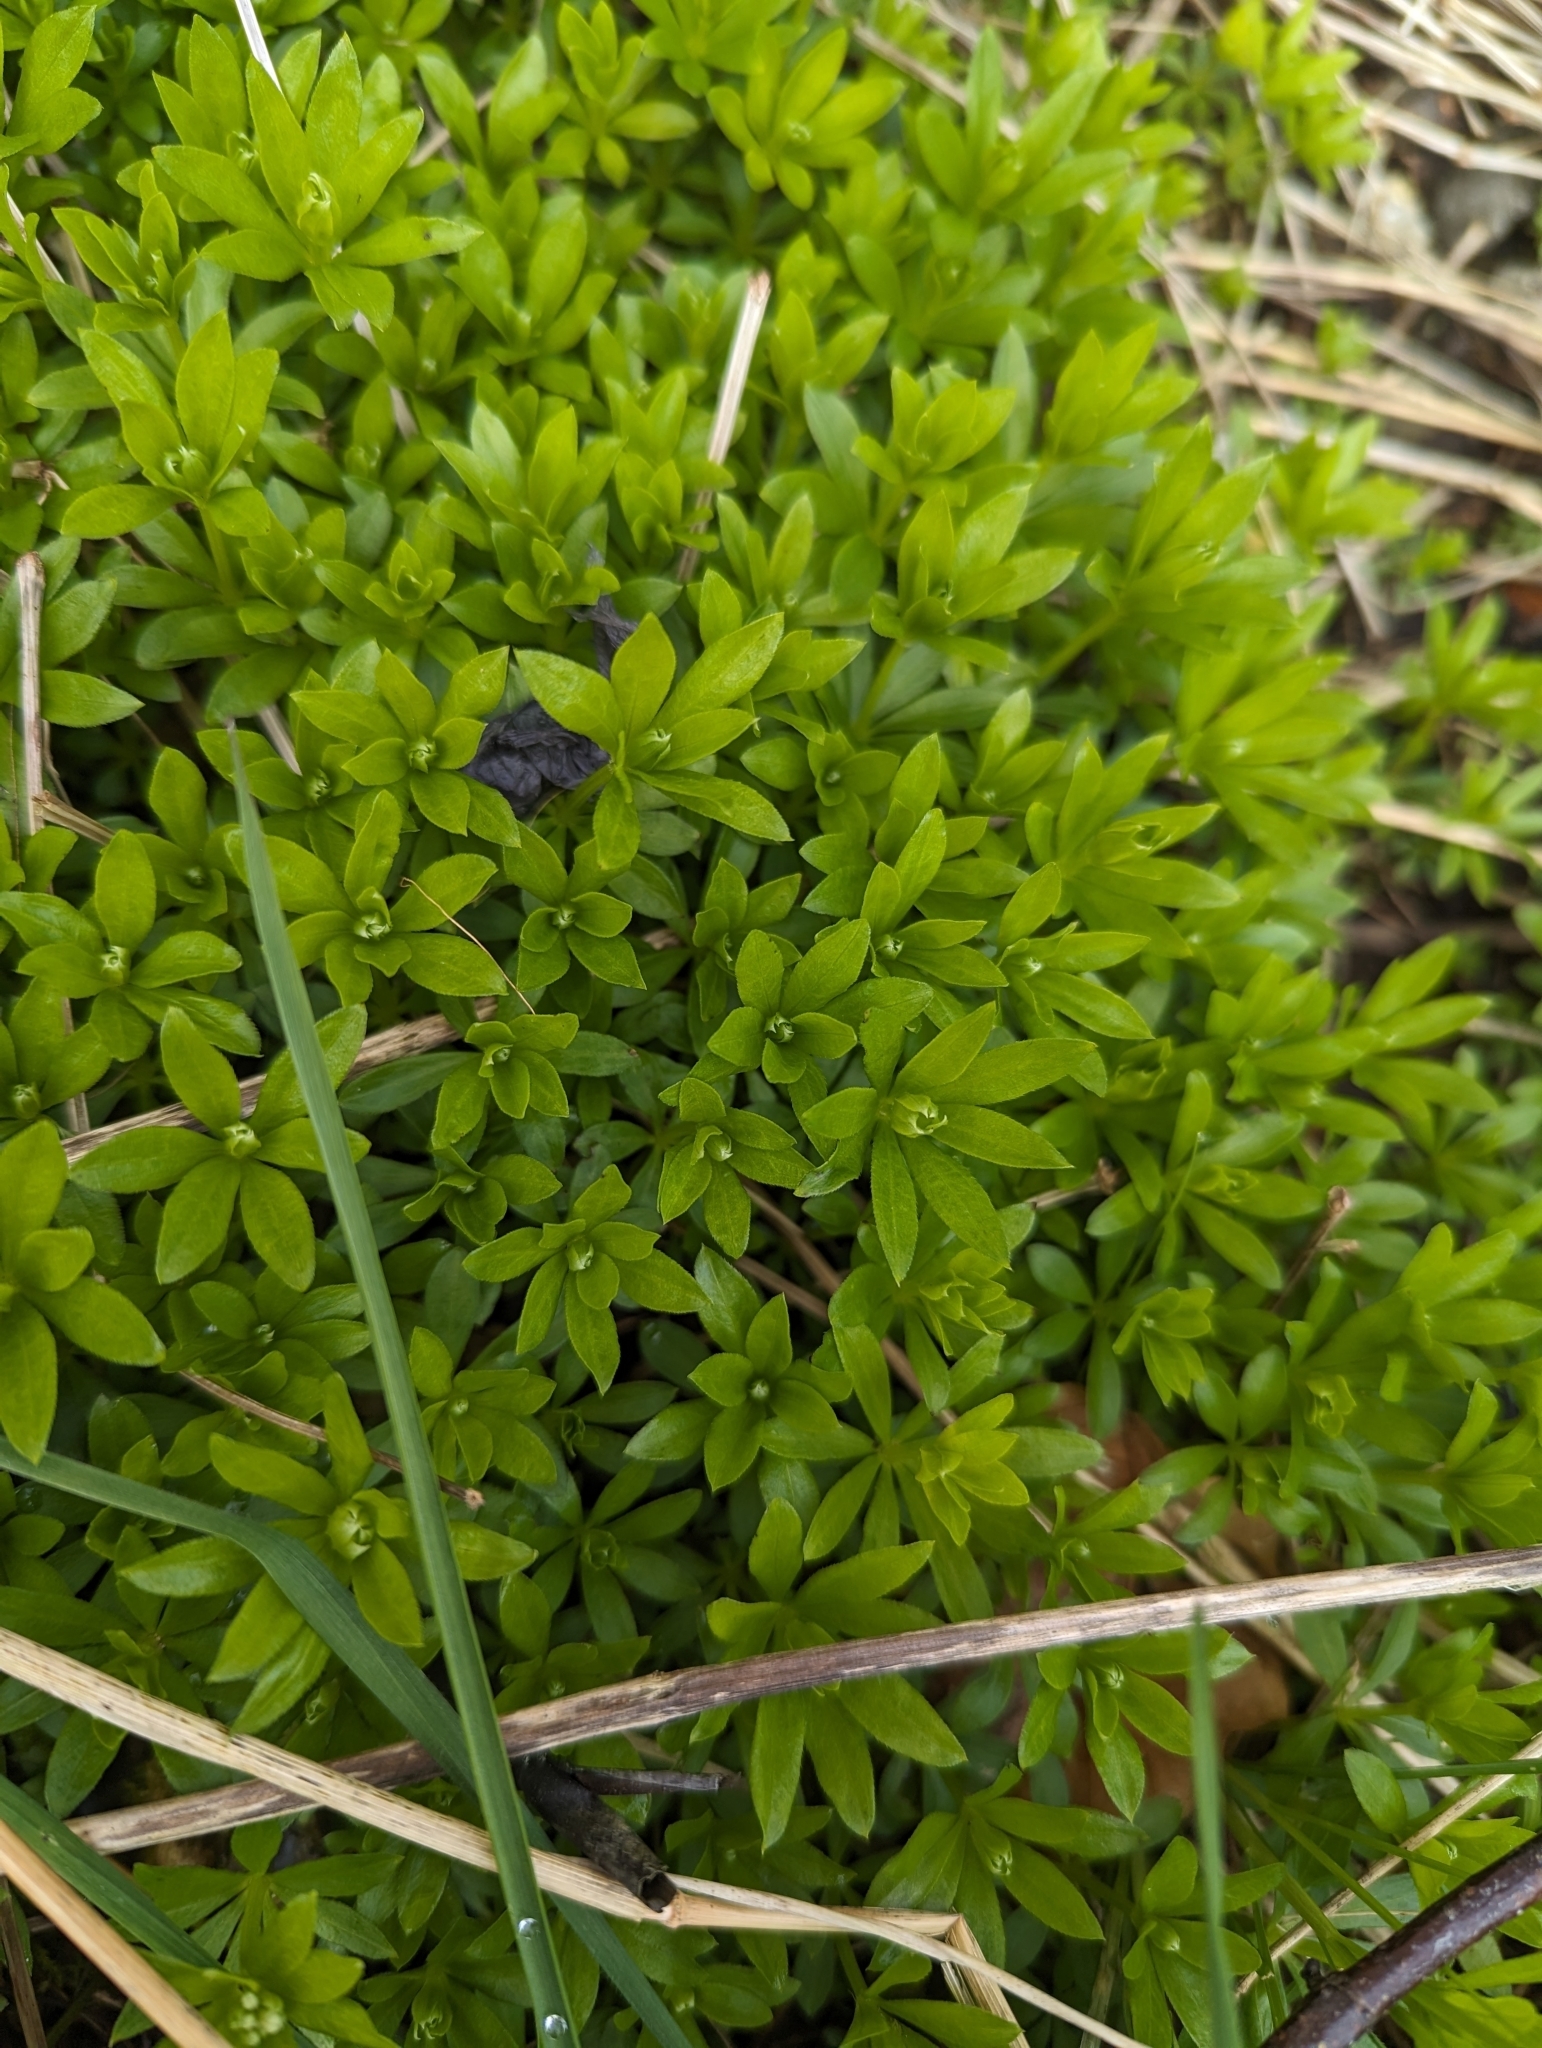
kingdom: Plantae
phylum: Tracheophyta
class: Magnoliopsida
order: Gentianales
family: Rubiaceae
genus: Galium
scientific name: Galium odoratum
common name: Sweet woodruff
